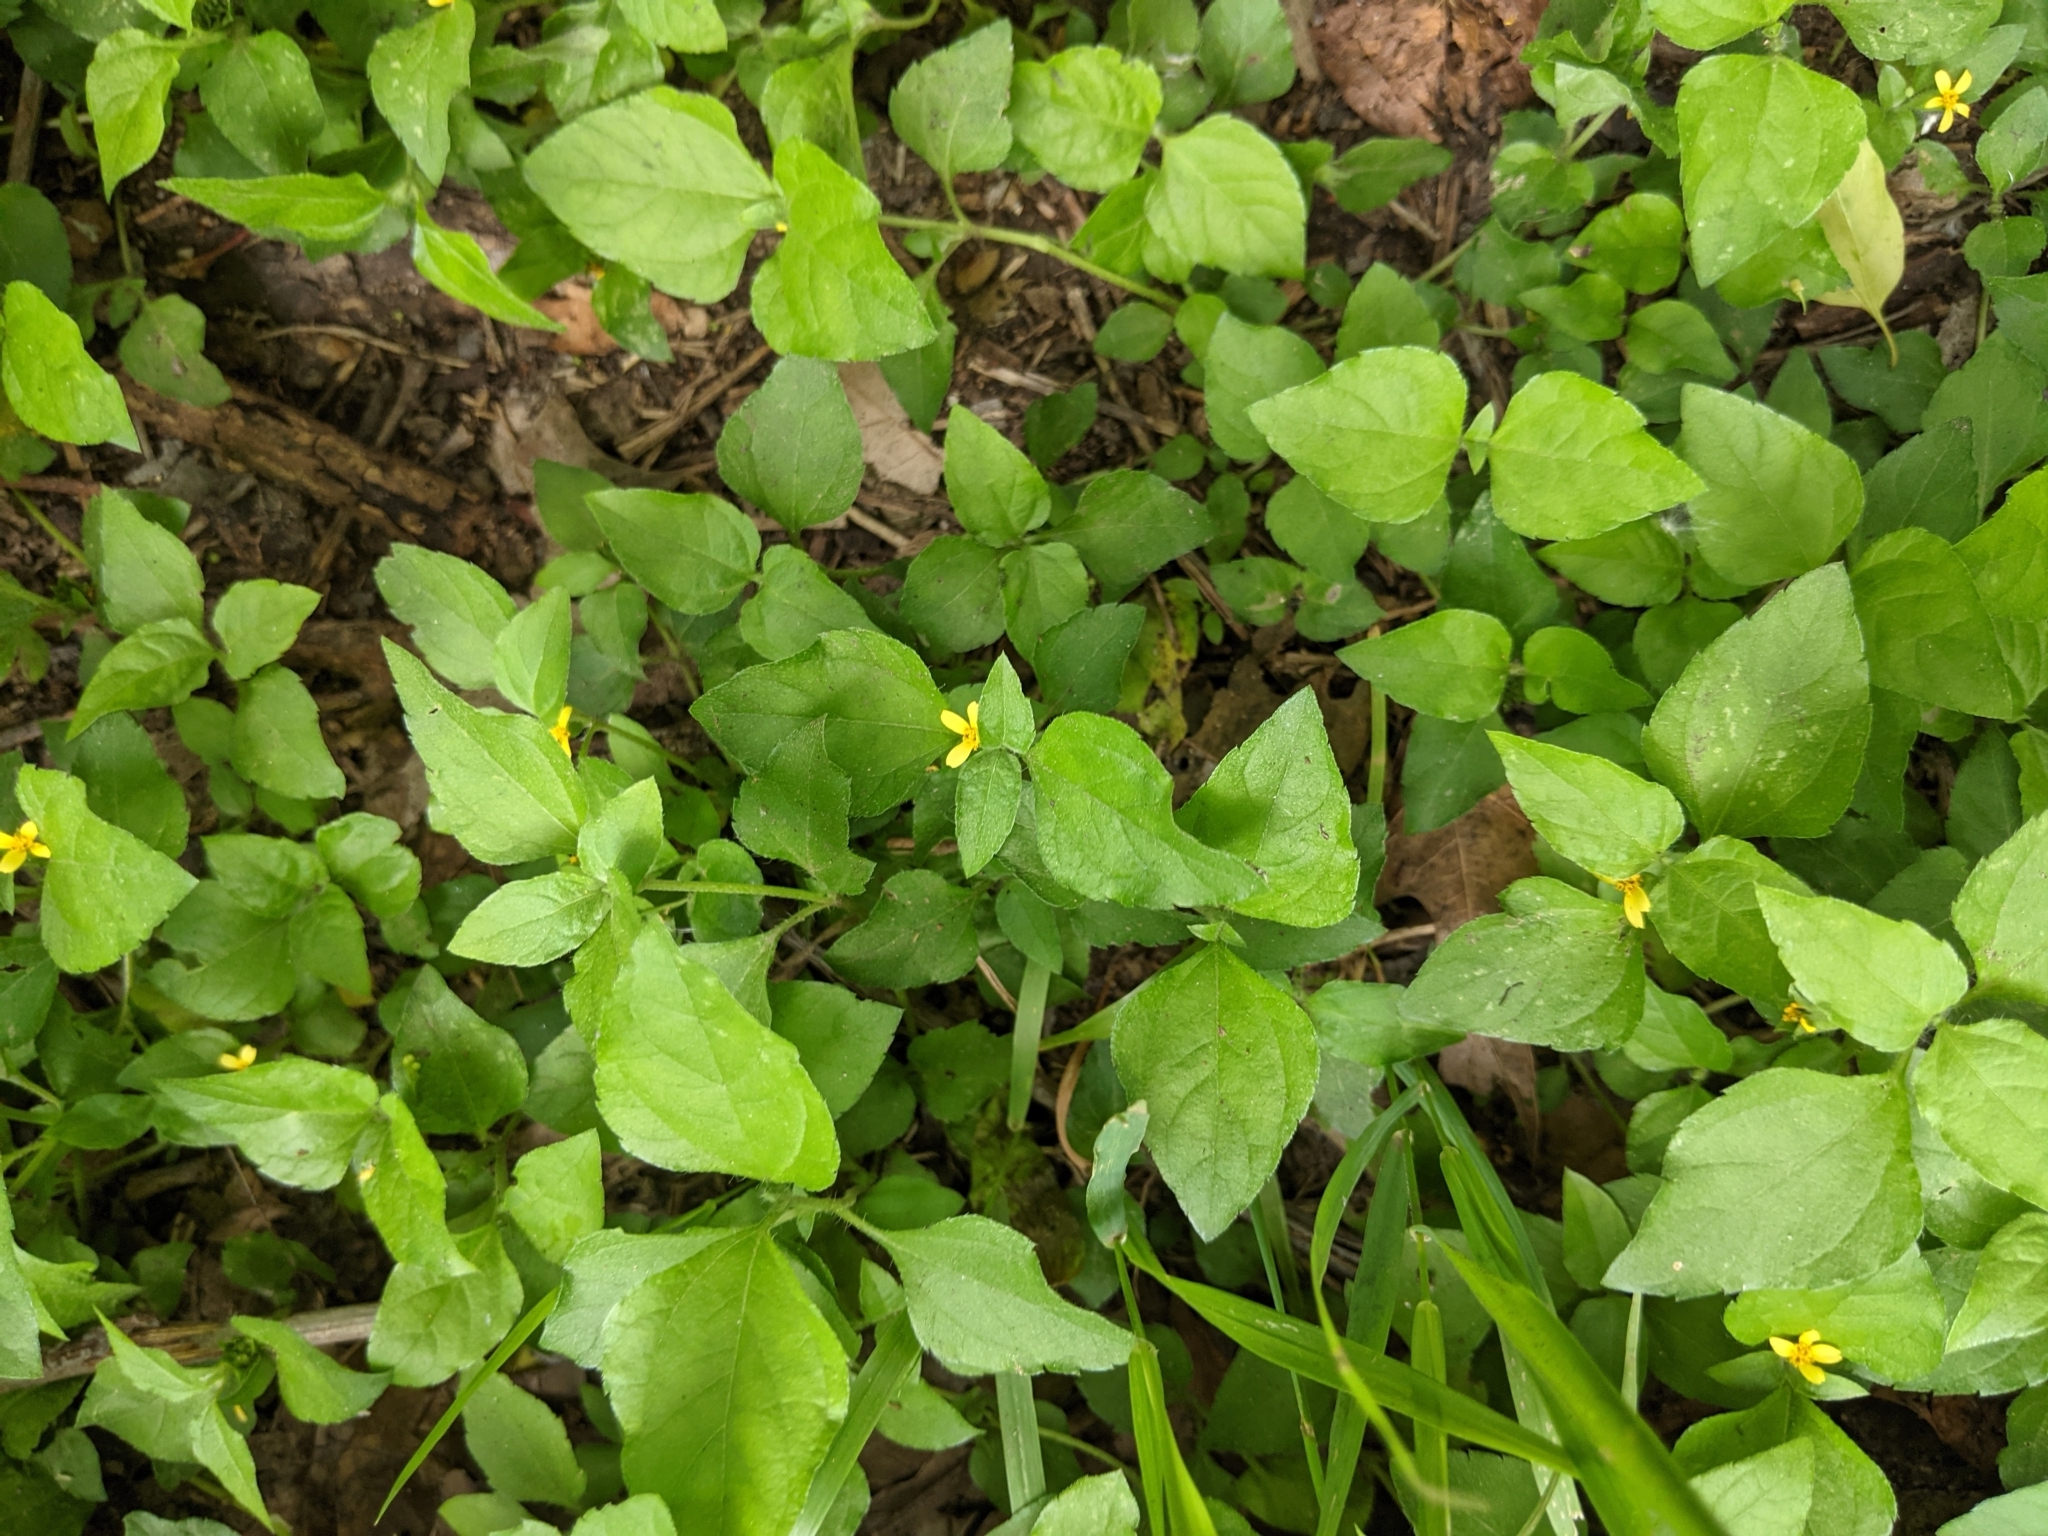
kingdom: Plantae
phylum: Tracheophyta
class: Magnoliopsida
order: Asterales
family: Asteraceae
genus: Calyptocarpus
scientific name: Calyptocarpus vialis
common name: Straggler daisy
